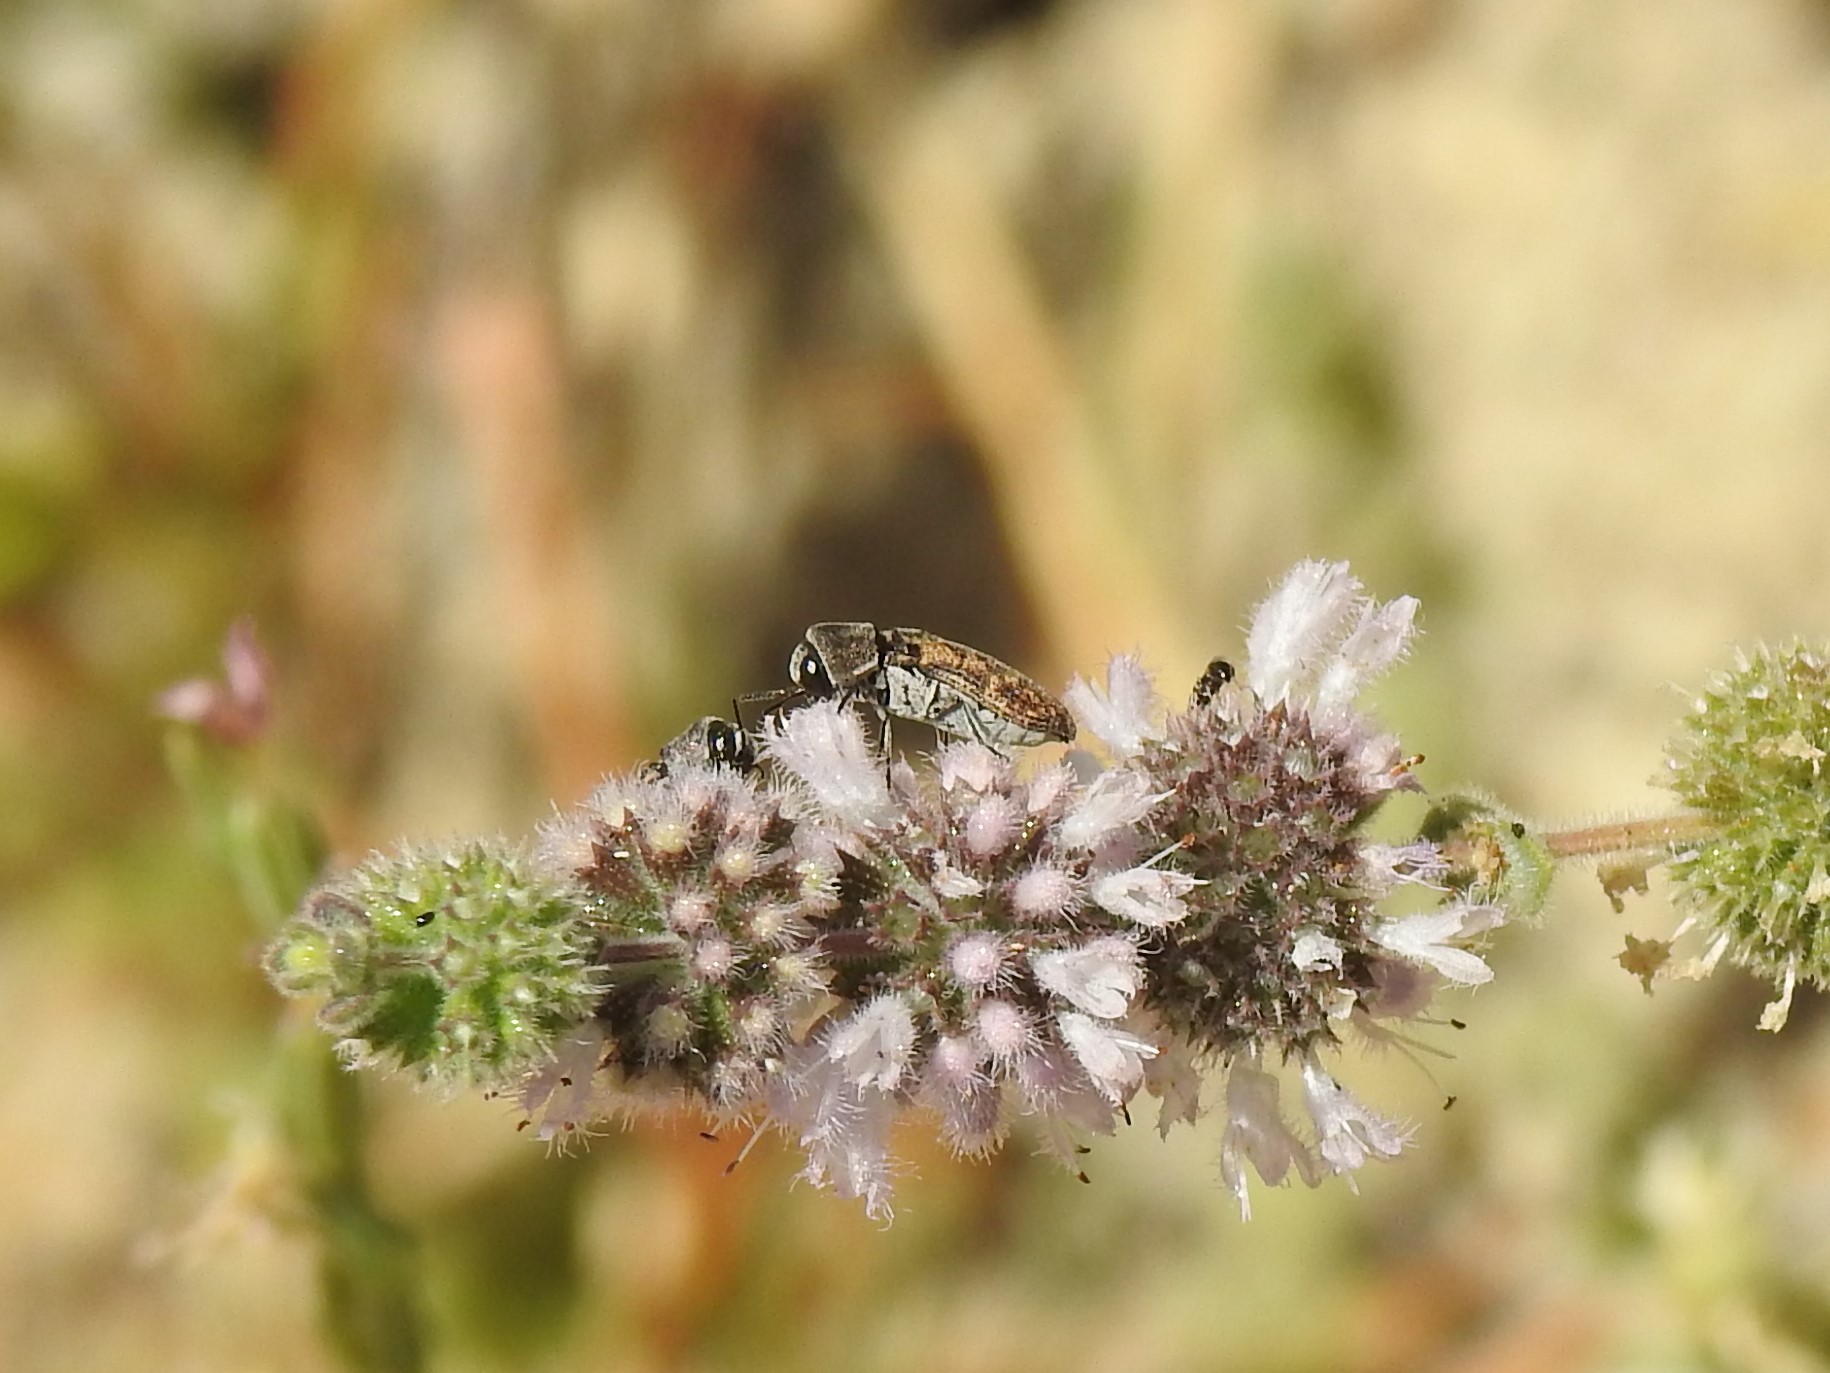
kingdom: Animalia
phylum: Arthropoda
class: Insecta
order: Coleoptera
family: Buprestidae
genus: Acmaeoderella
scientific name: Acmaeoderella adspersula
